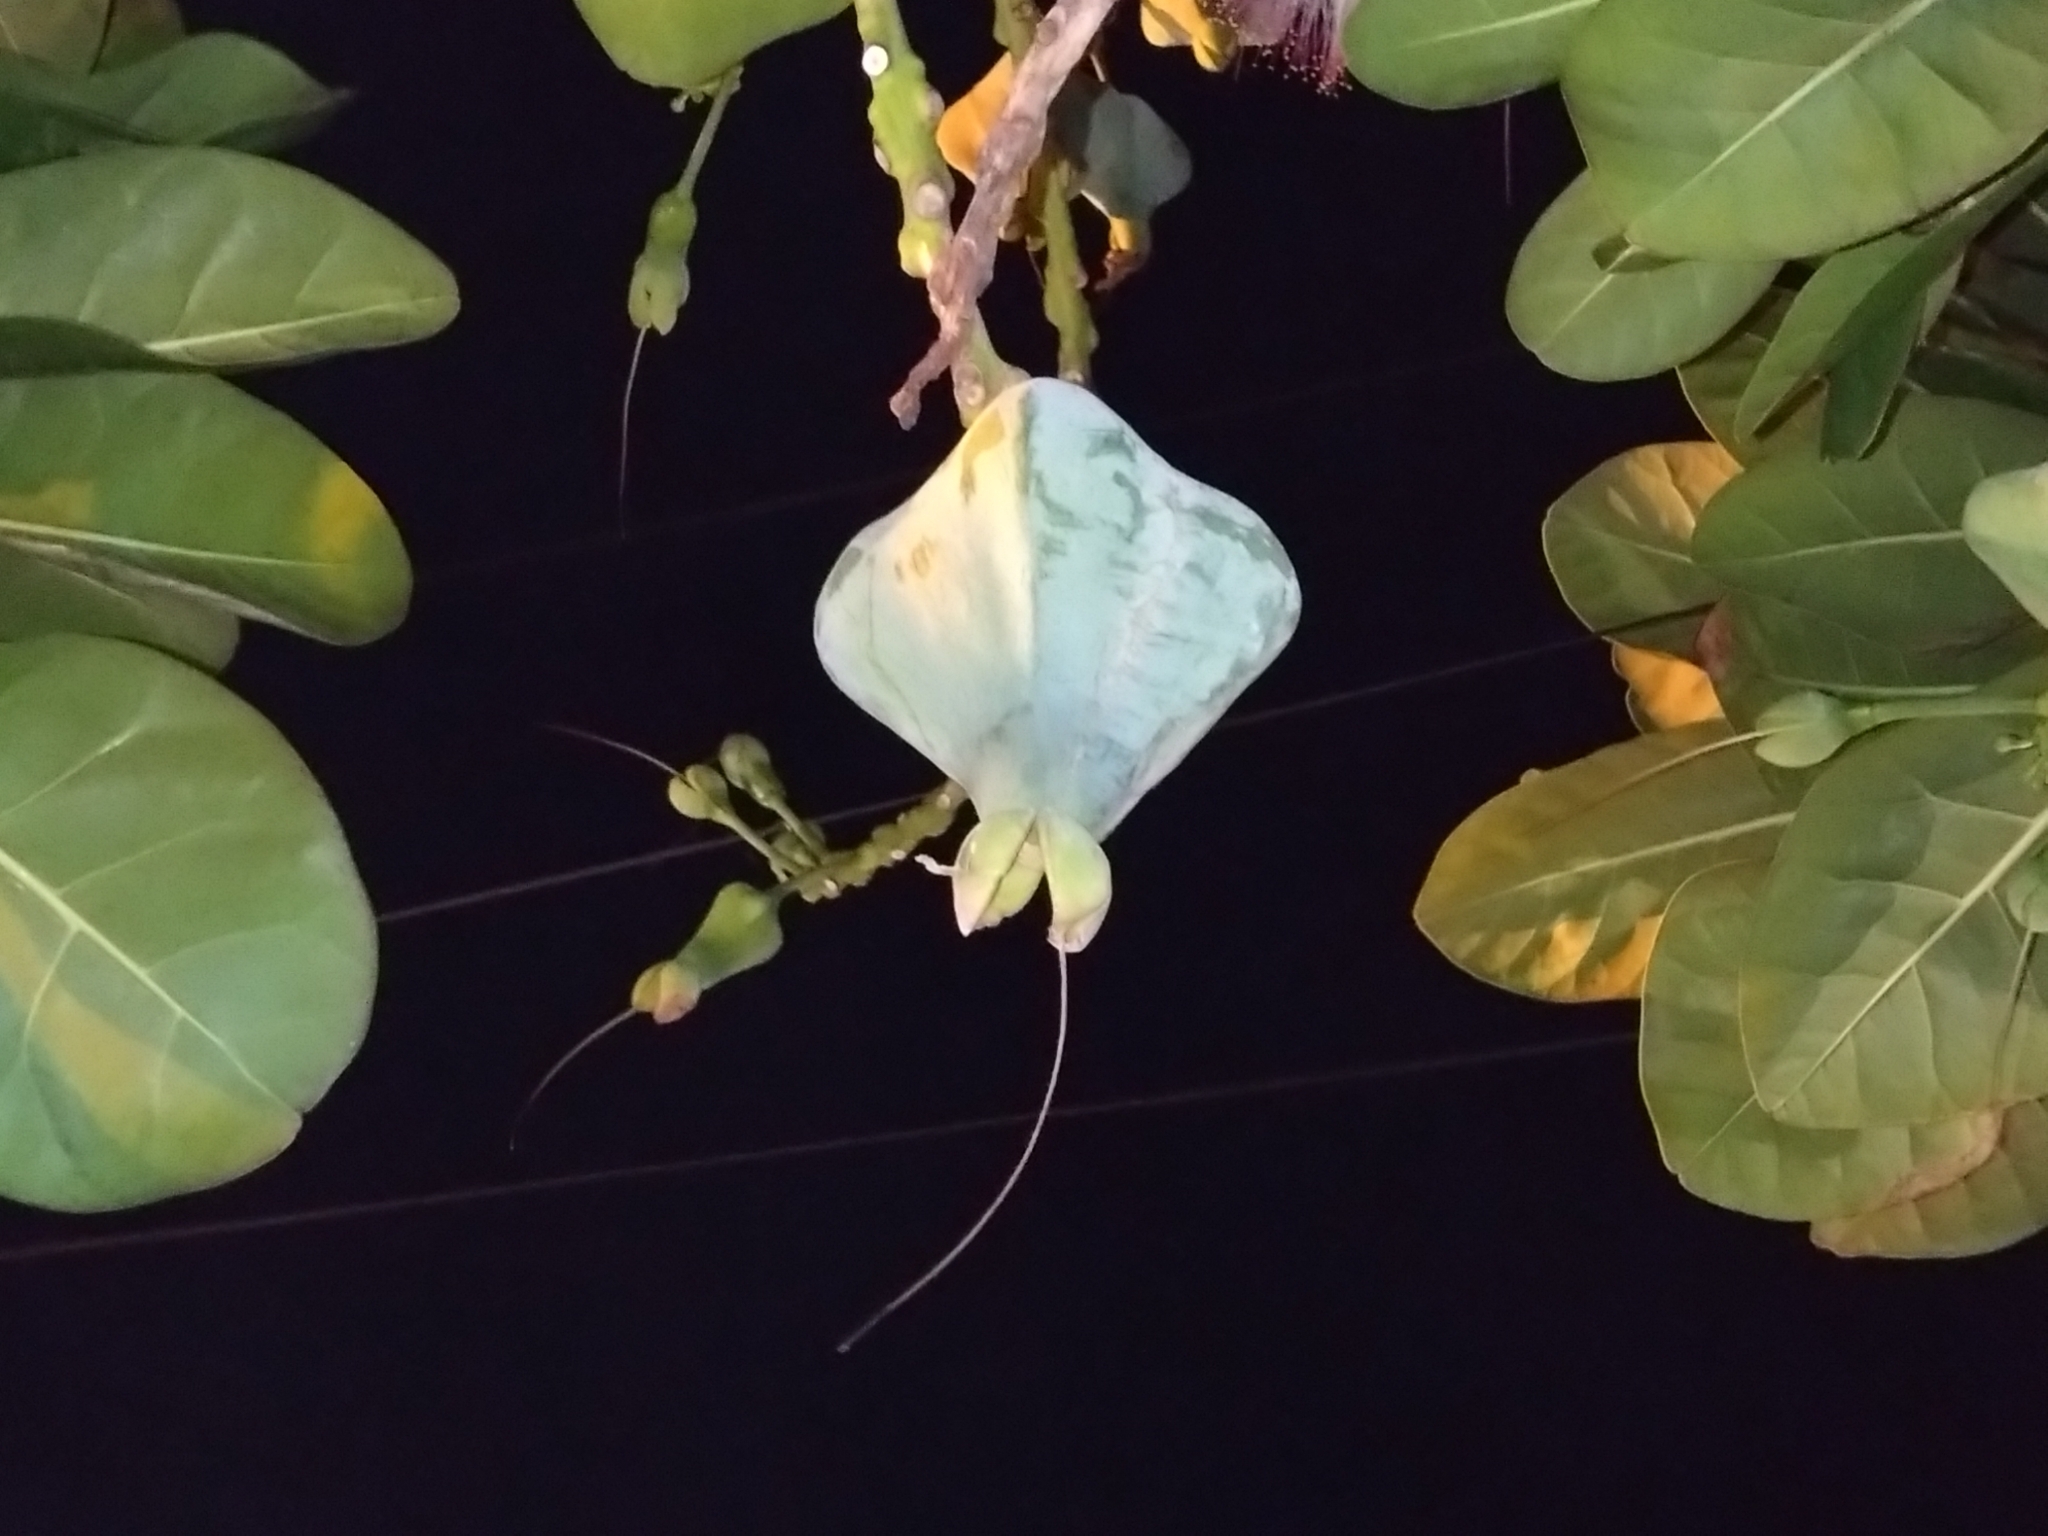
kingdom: Plantae
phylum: Tracheophyta
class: Magnoliopsida
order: Ericales
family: Lecythidaceae
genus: Barringtonia
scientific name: Barringtonia asiatica
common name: Mango-pine
